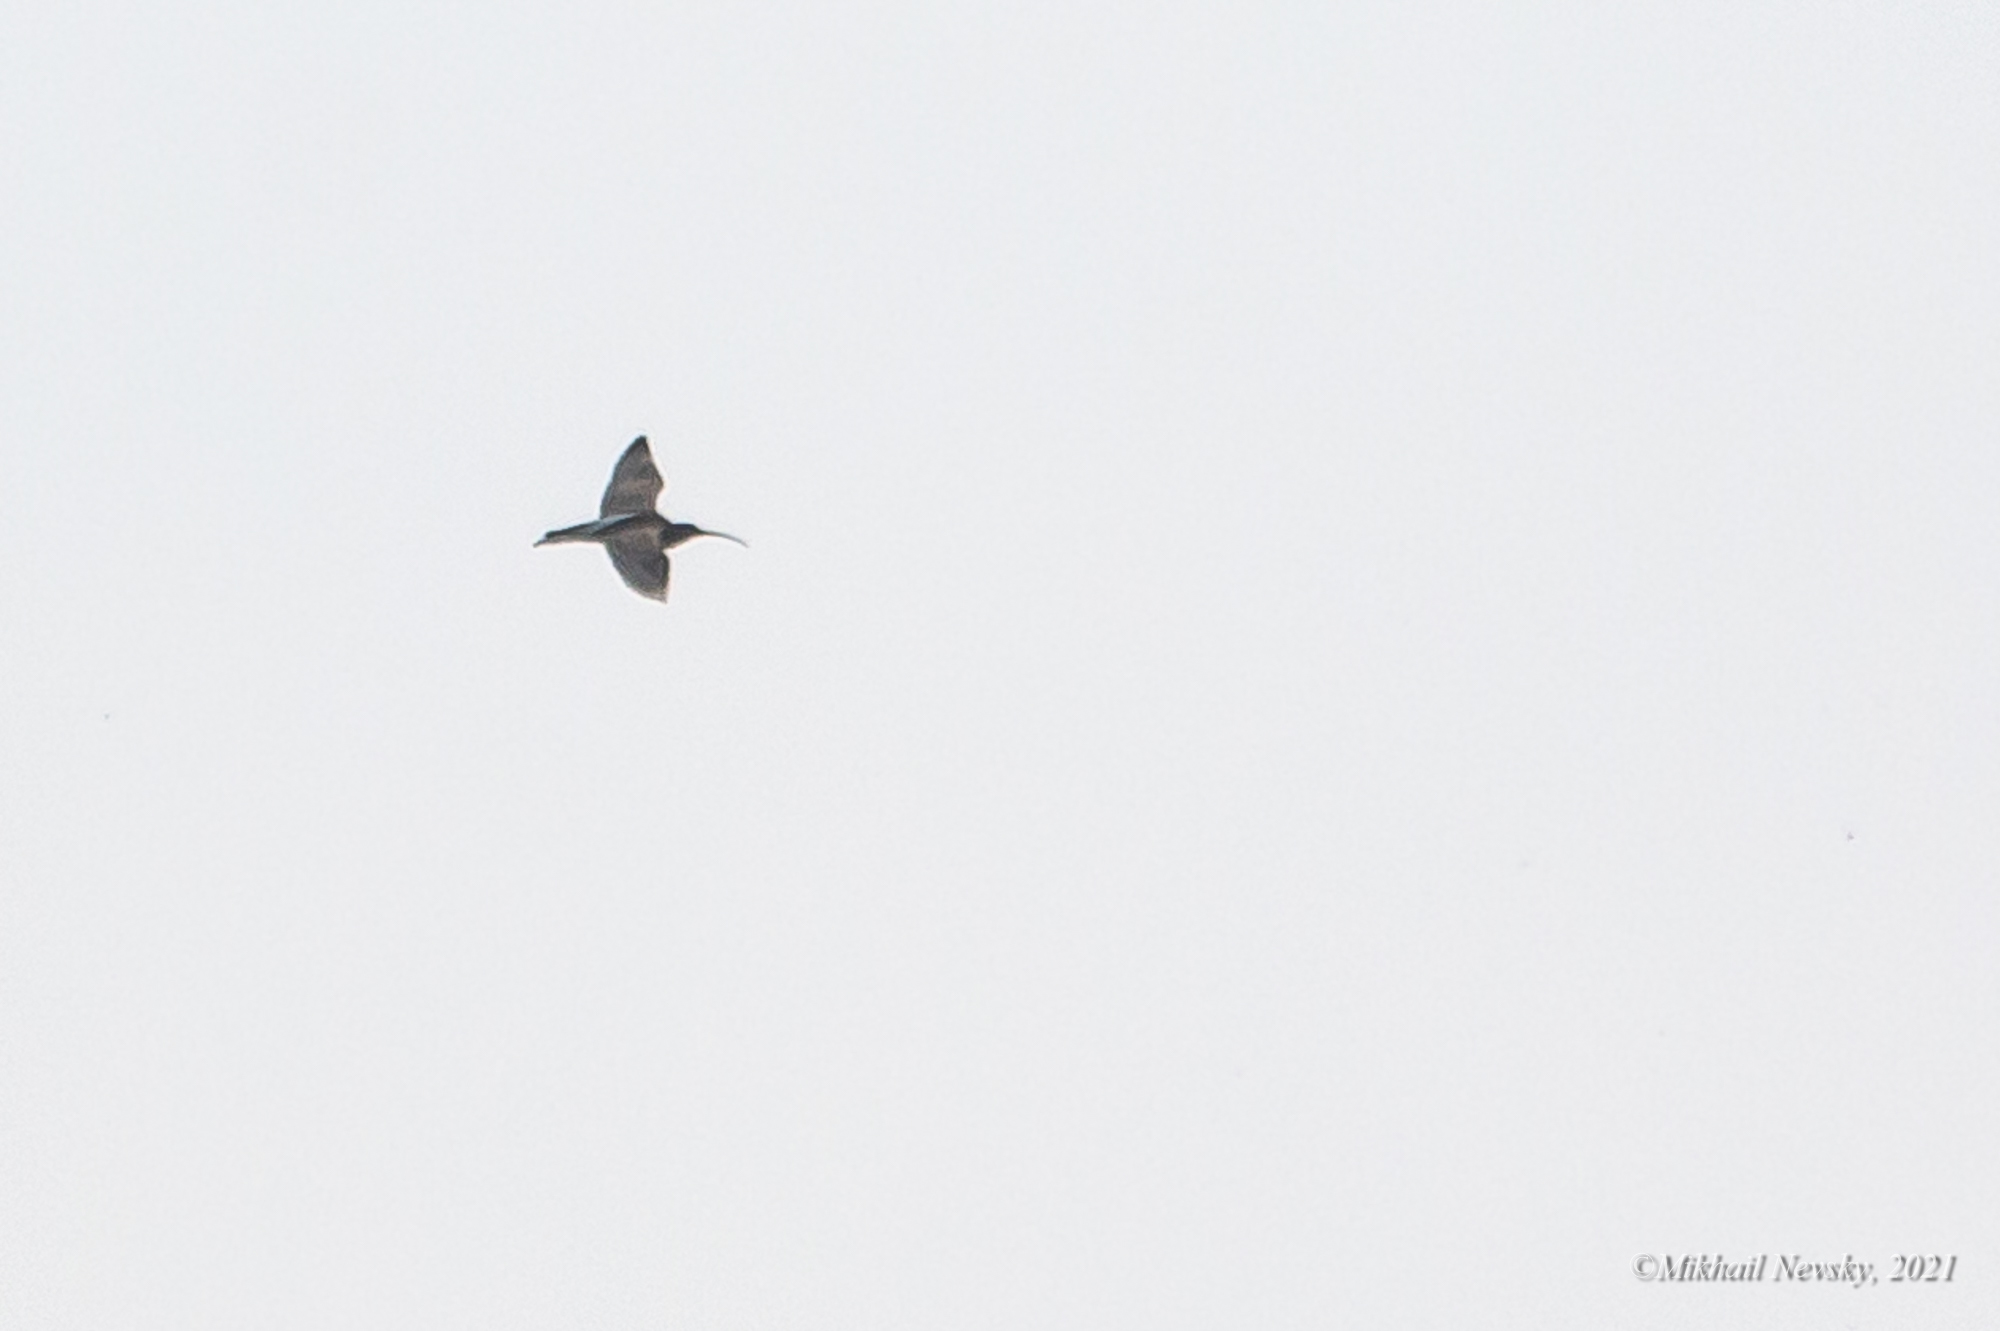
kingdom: Animalia
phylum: Chordata
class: Aves
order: Charadriiformes
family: Scolopacidae
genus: Numenius
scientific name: Numenius arquata
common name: Eurasian curlew
